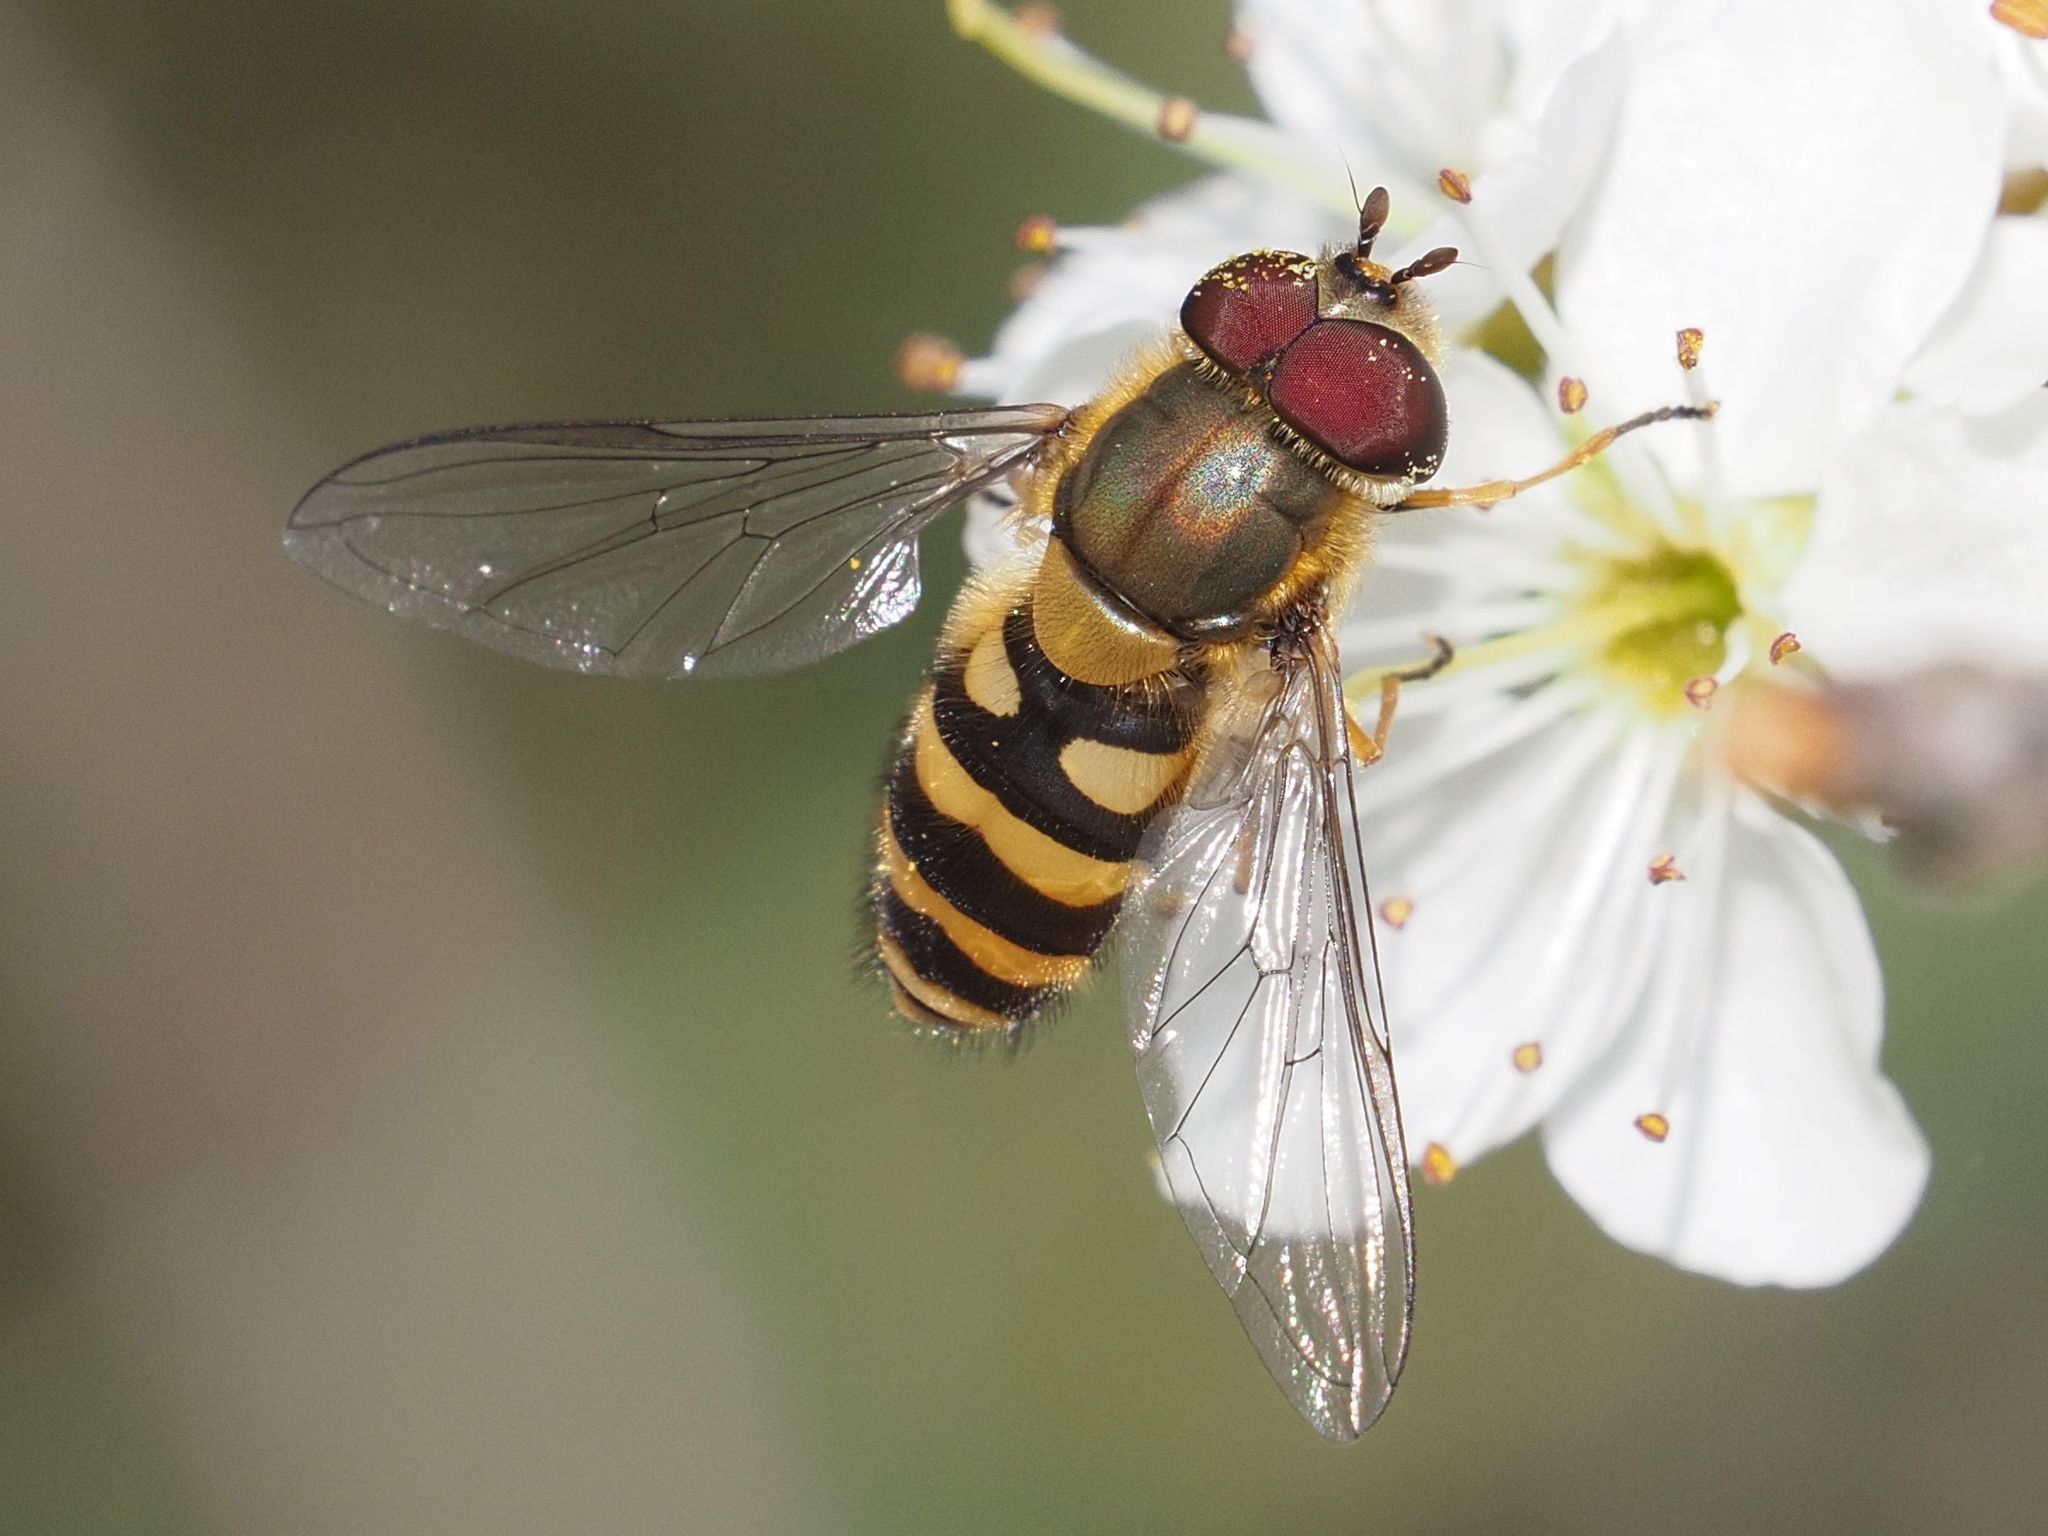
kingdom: Animalia
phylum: Arthropoda
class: Insecta
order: Diptera
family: Syrphidae
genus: Syrphus
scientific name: Syrphus torvus
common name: Hairy-eyed flower fly
